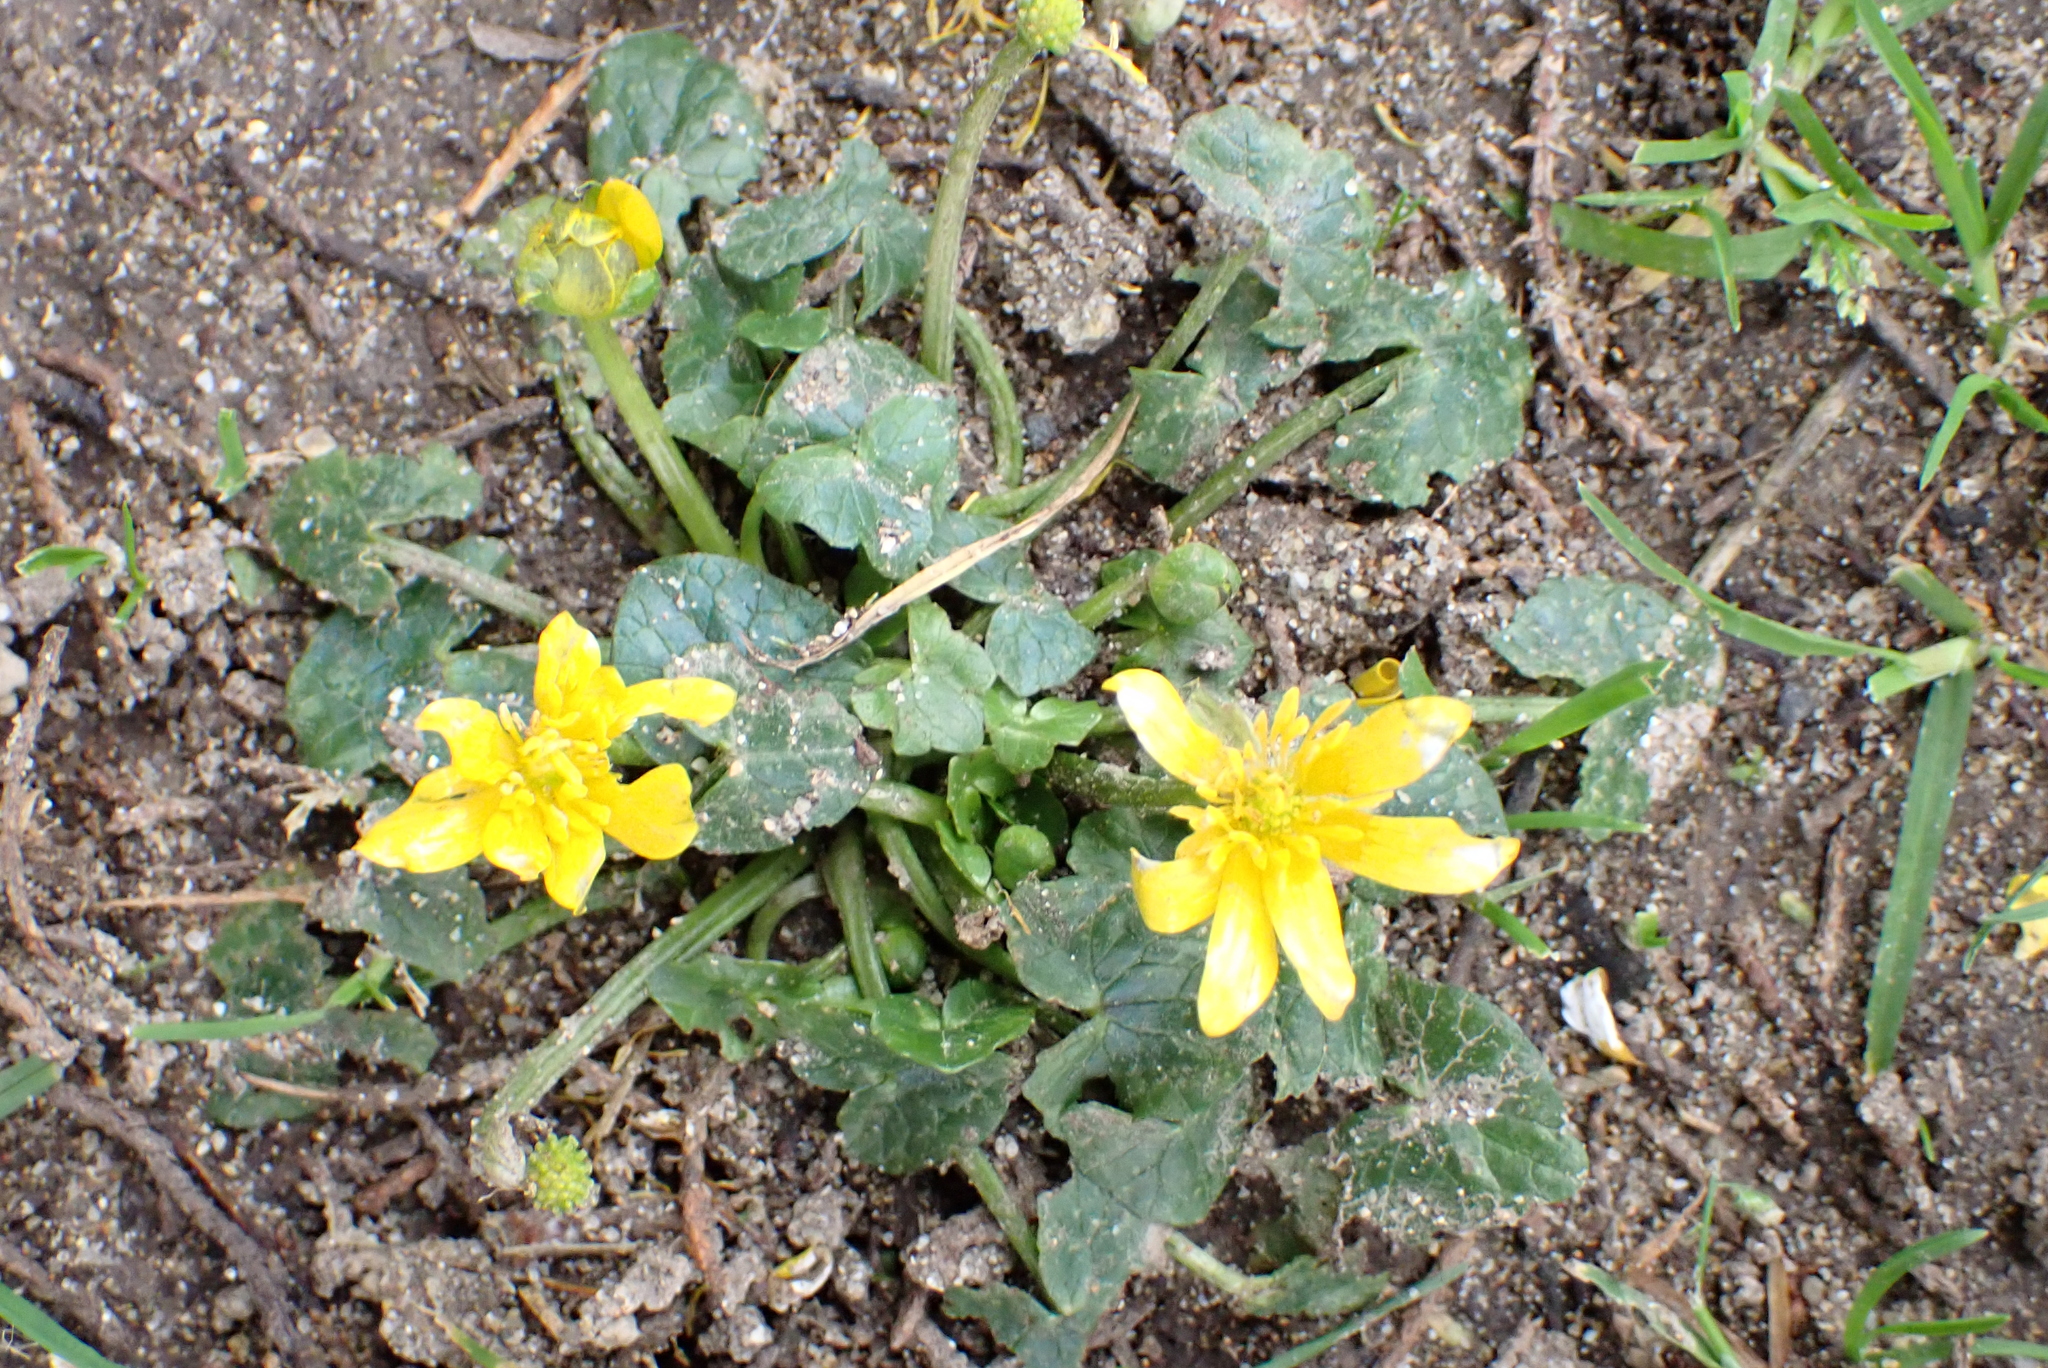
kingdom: Plantae
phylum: Tracheophyta
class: Magnoliopsida
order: Ranunculales
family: Ranunculaceae
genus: Ficaria
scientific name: Ficaria verna
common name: Lesser celandine
